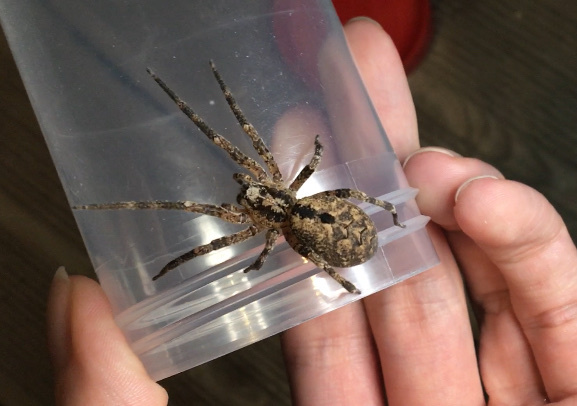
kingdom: Animalia
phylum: Arthropoda
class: Arachnida
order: Araneae
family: Zoropsidae
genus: Zoropsis
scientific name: Zoropsis spinimana
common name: Zoropsid spider
